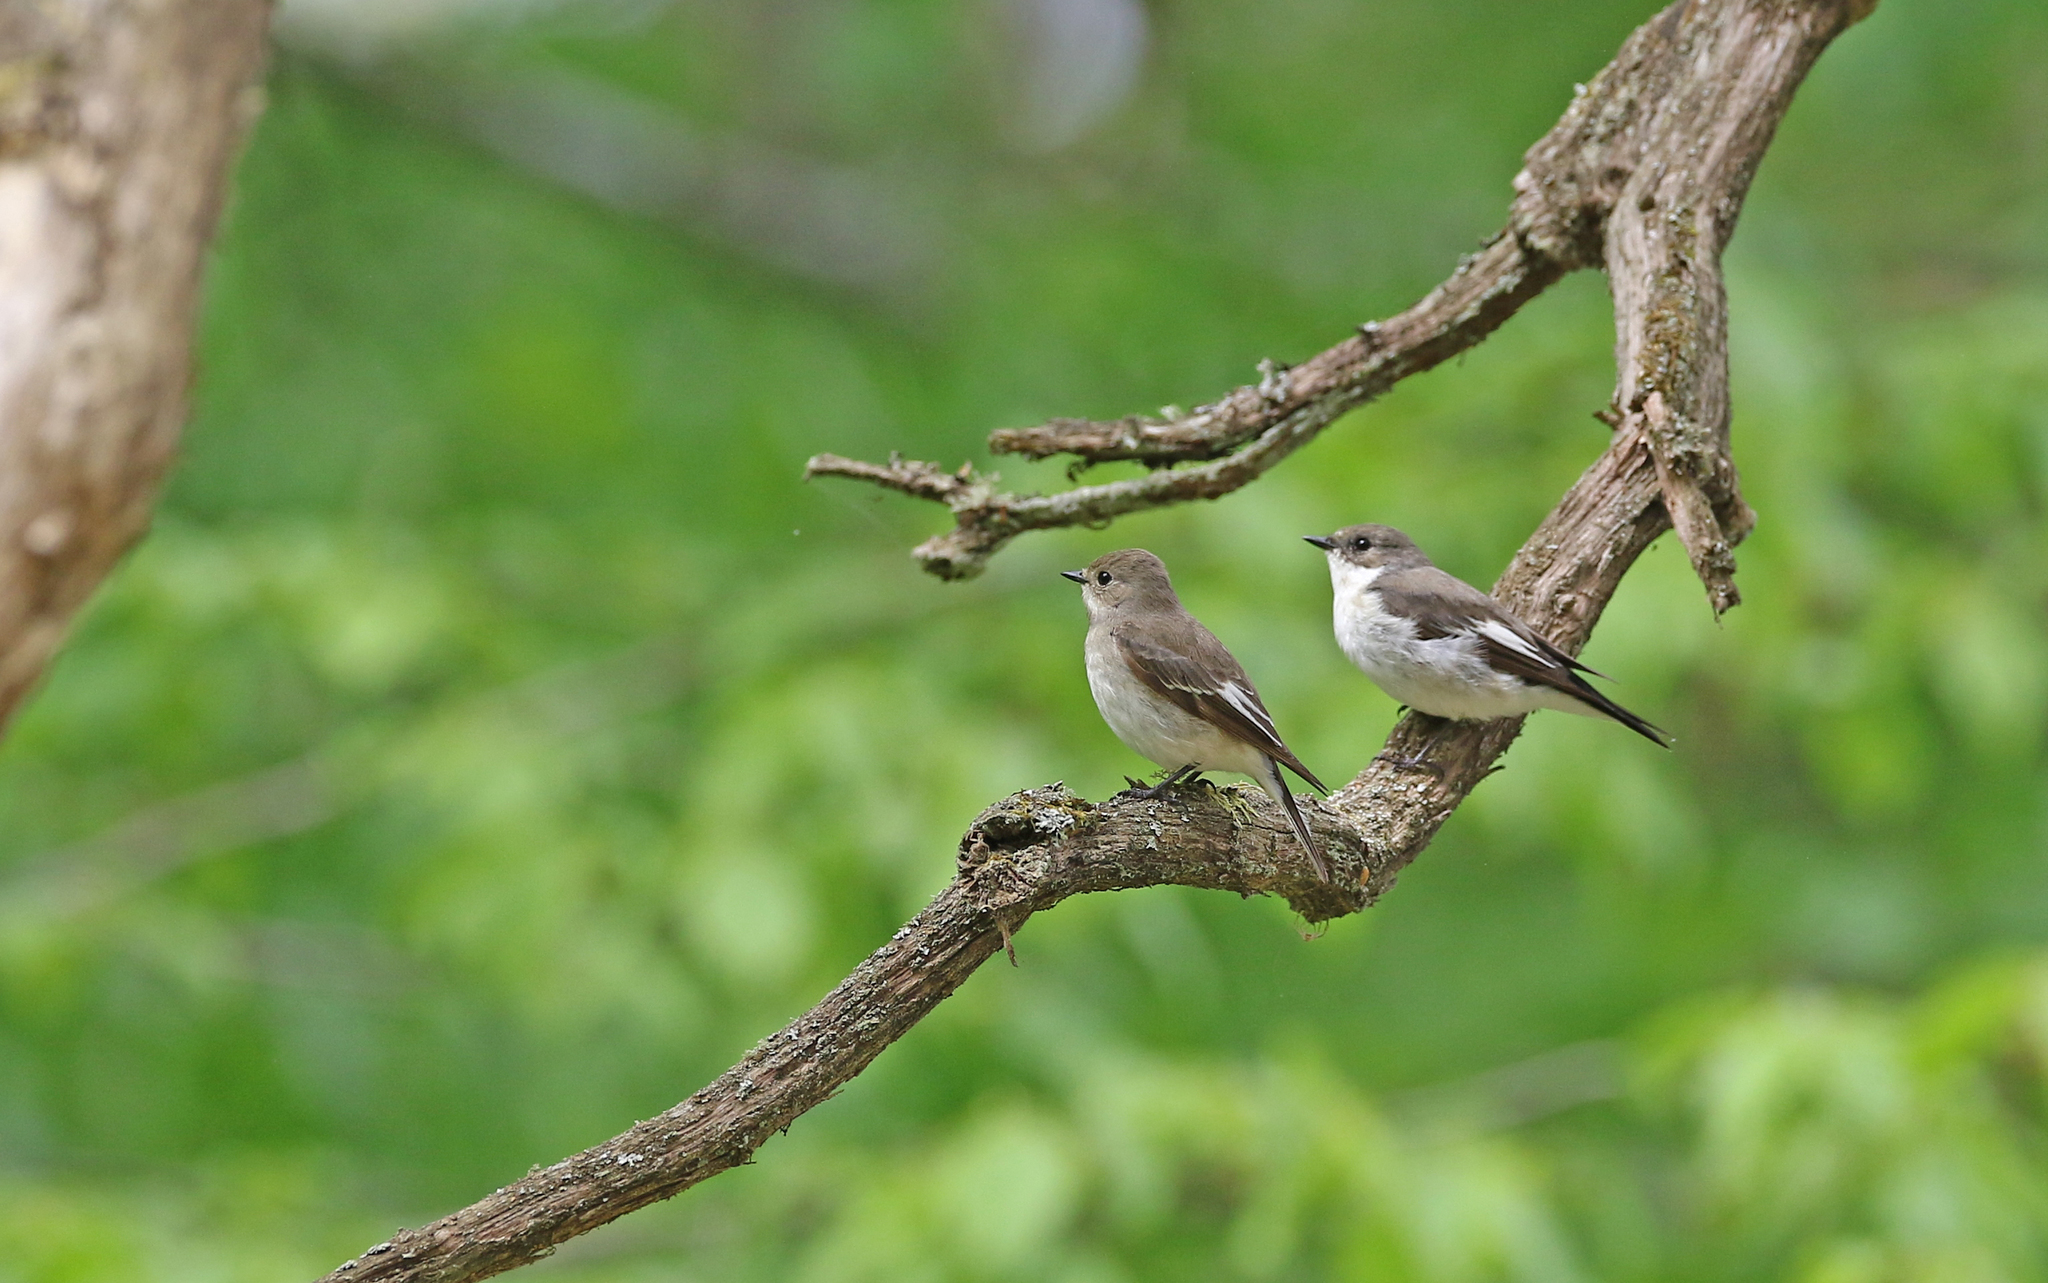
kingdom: Animalia
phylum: Chordata
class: Aves
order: Passeriformes
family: Muscicapidae
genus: Ficedula
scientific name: Ficedula hypoleuca
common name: European pied flycatcher
